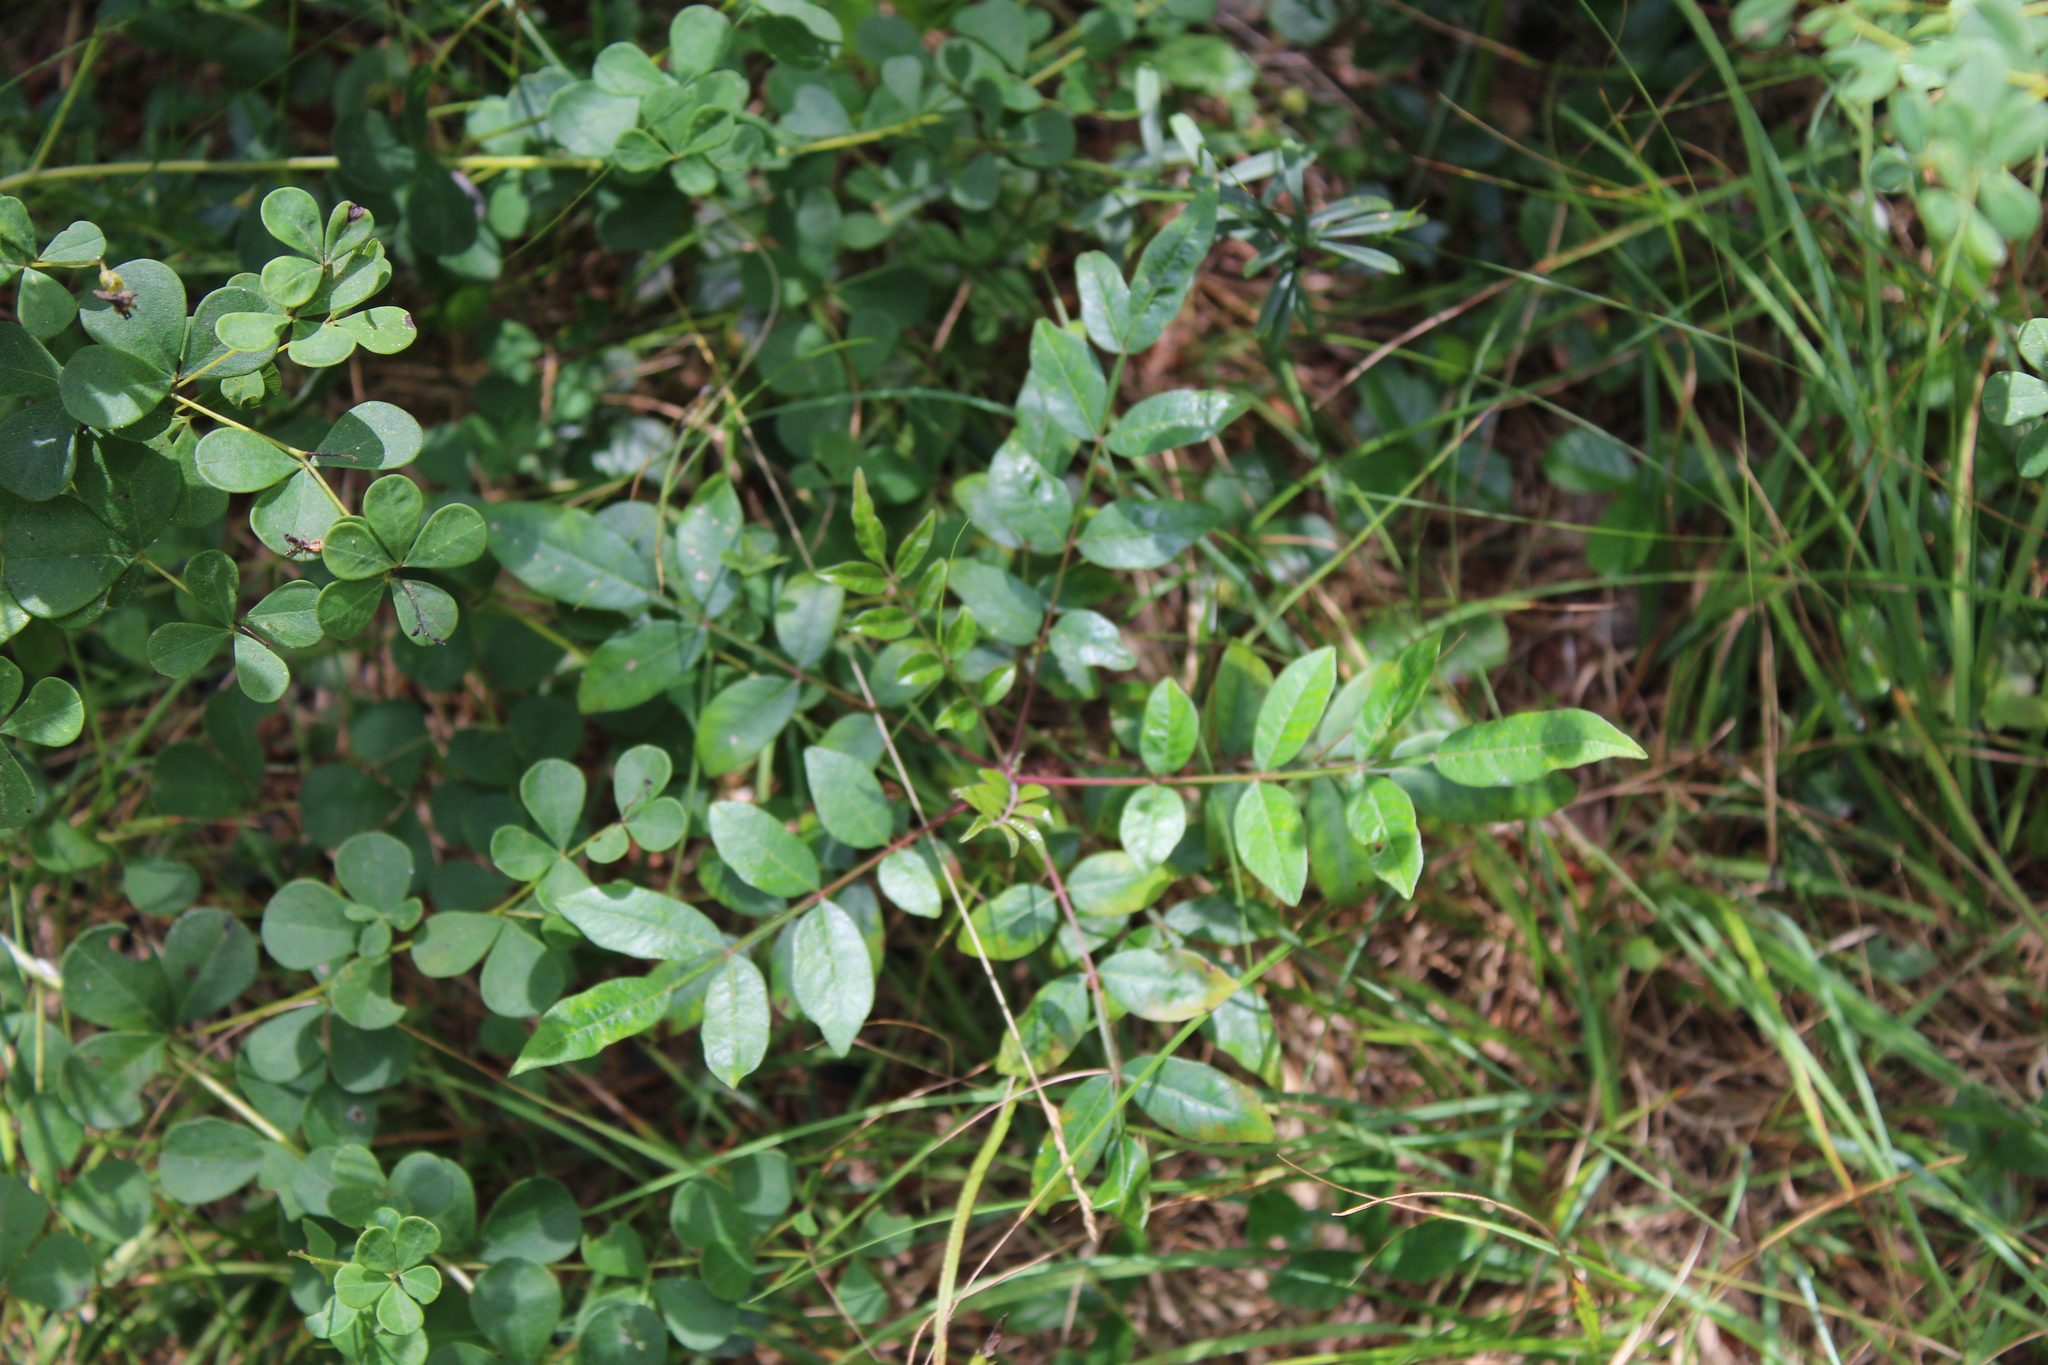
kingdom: Plantae
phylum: Tracheophyta
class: Magnoliopsida
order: Sapindales
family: Anacardiaceae
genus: Rhus
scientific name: Rhus copallina
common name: Shining sumac
